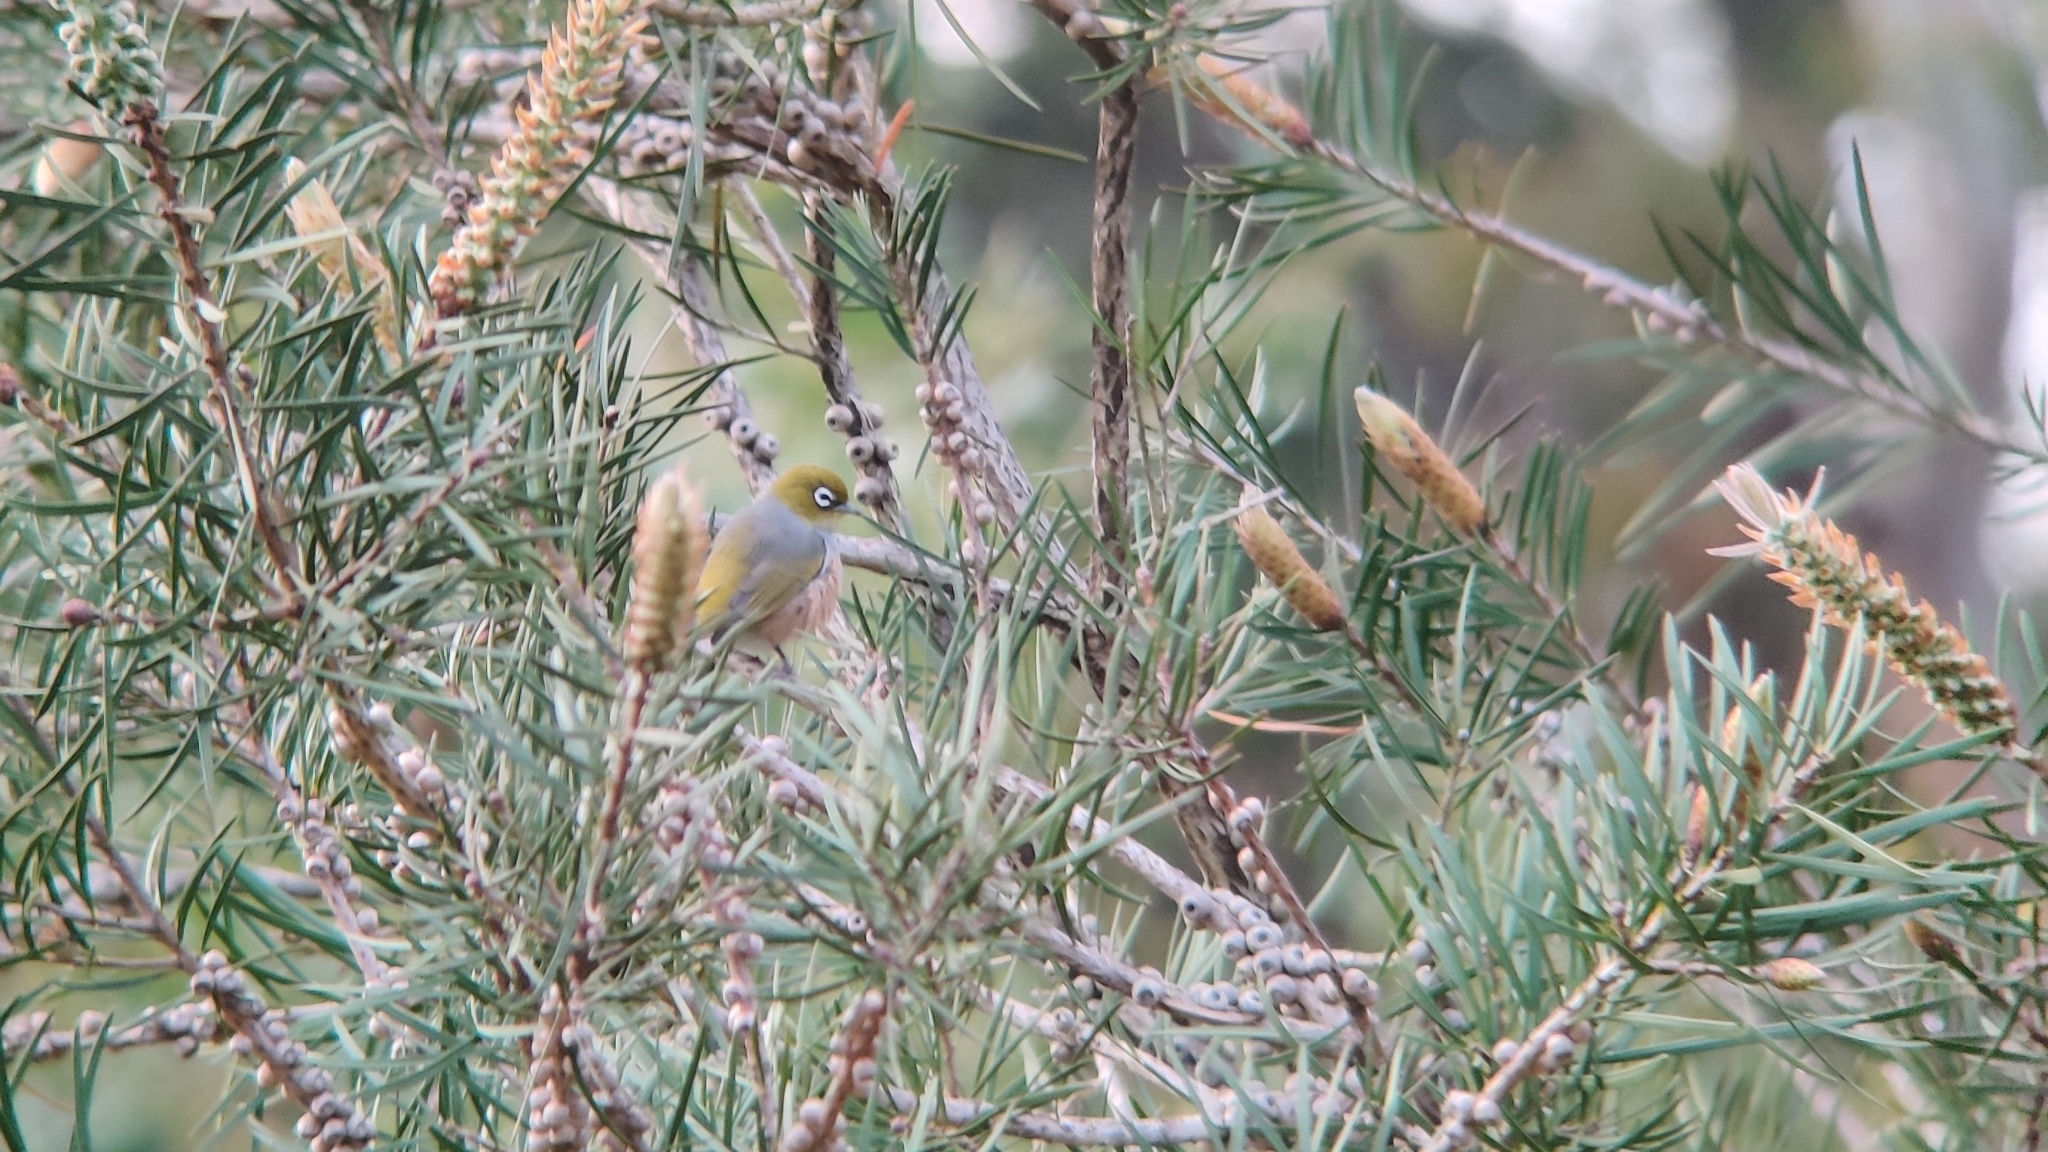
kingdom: Animalia
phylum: Chordata
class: Aves
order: Passeriformes
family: Zosteropidae
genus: Zosterops
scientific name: Zosterops lateralis
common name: Silvereye
